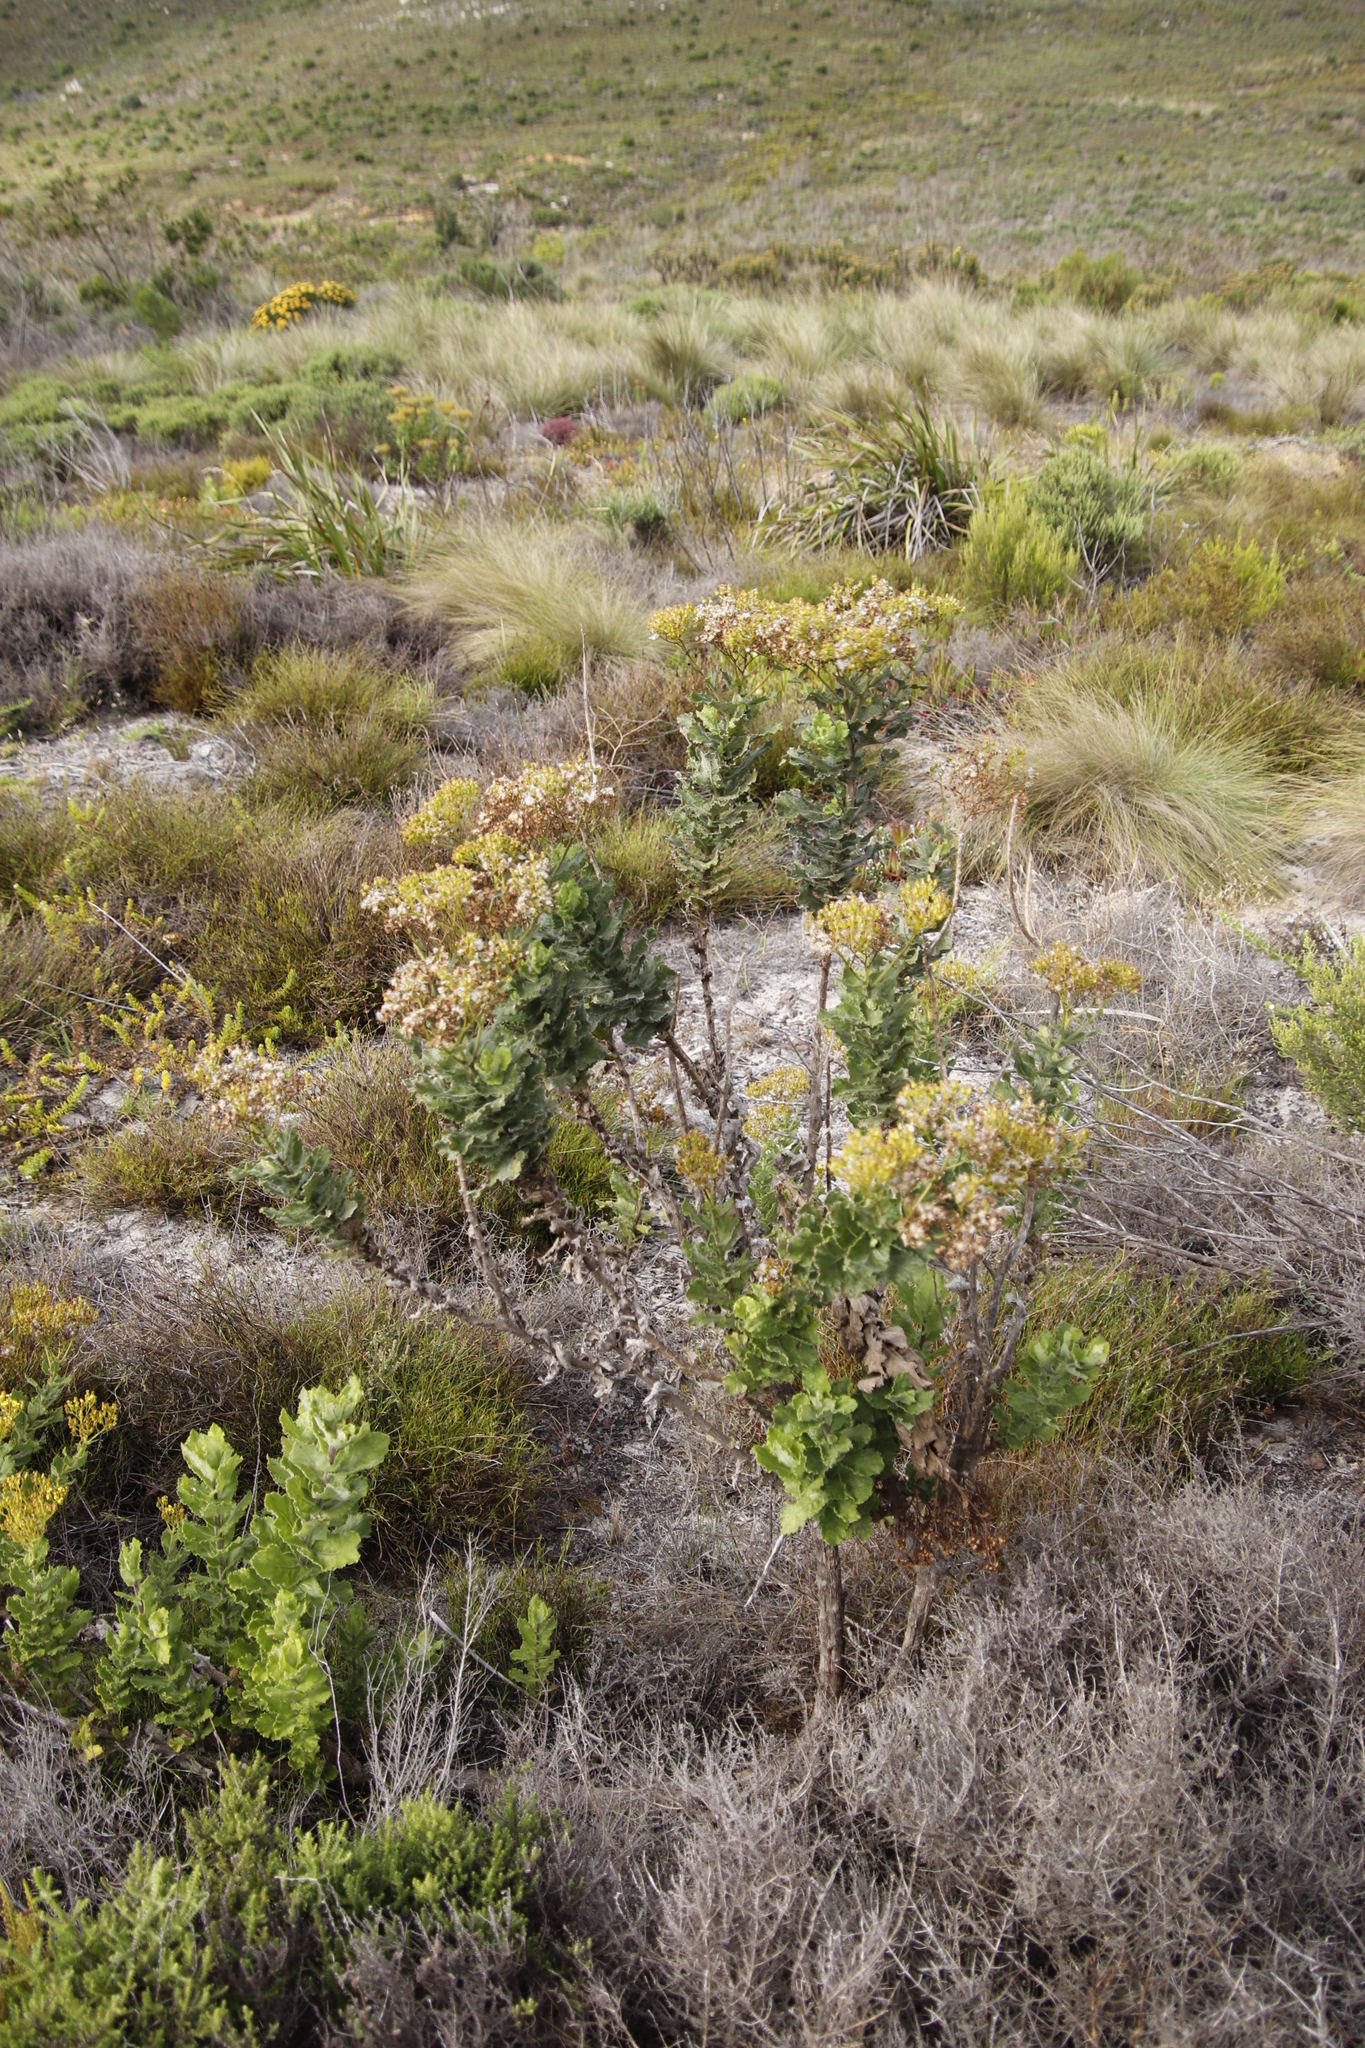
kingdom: Plantae
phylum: Tracheophyta
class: Magnoliopsida
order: Asterales
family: Asteraceae
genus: Senecio
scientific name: Senecio rigidus
